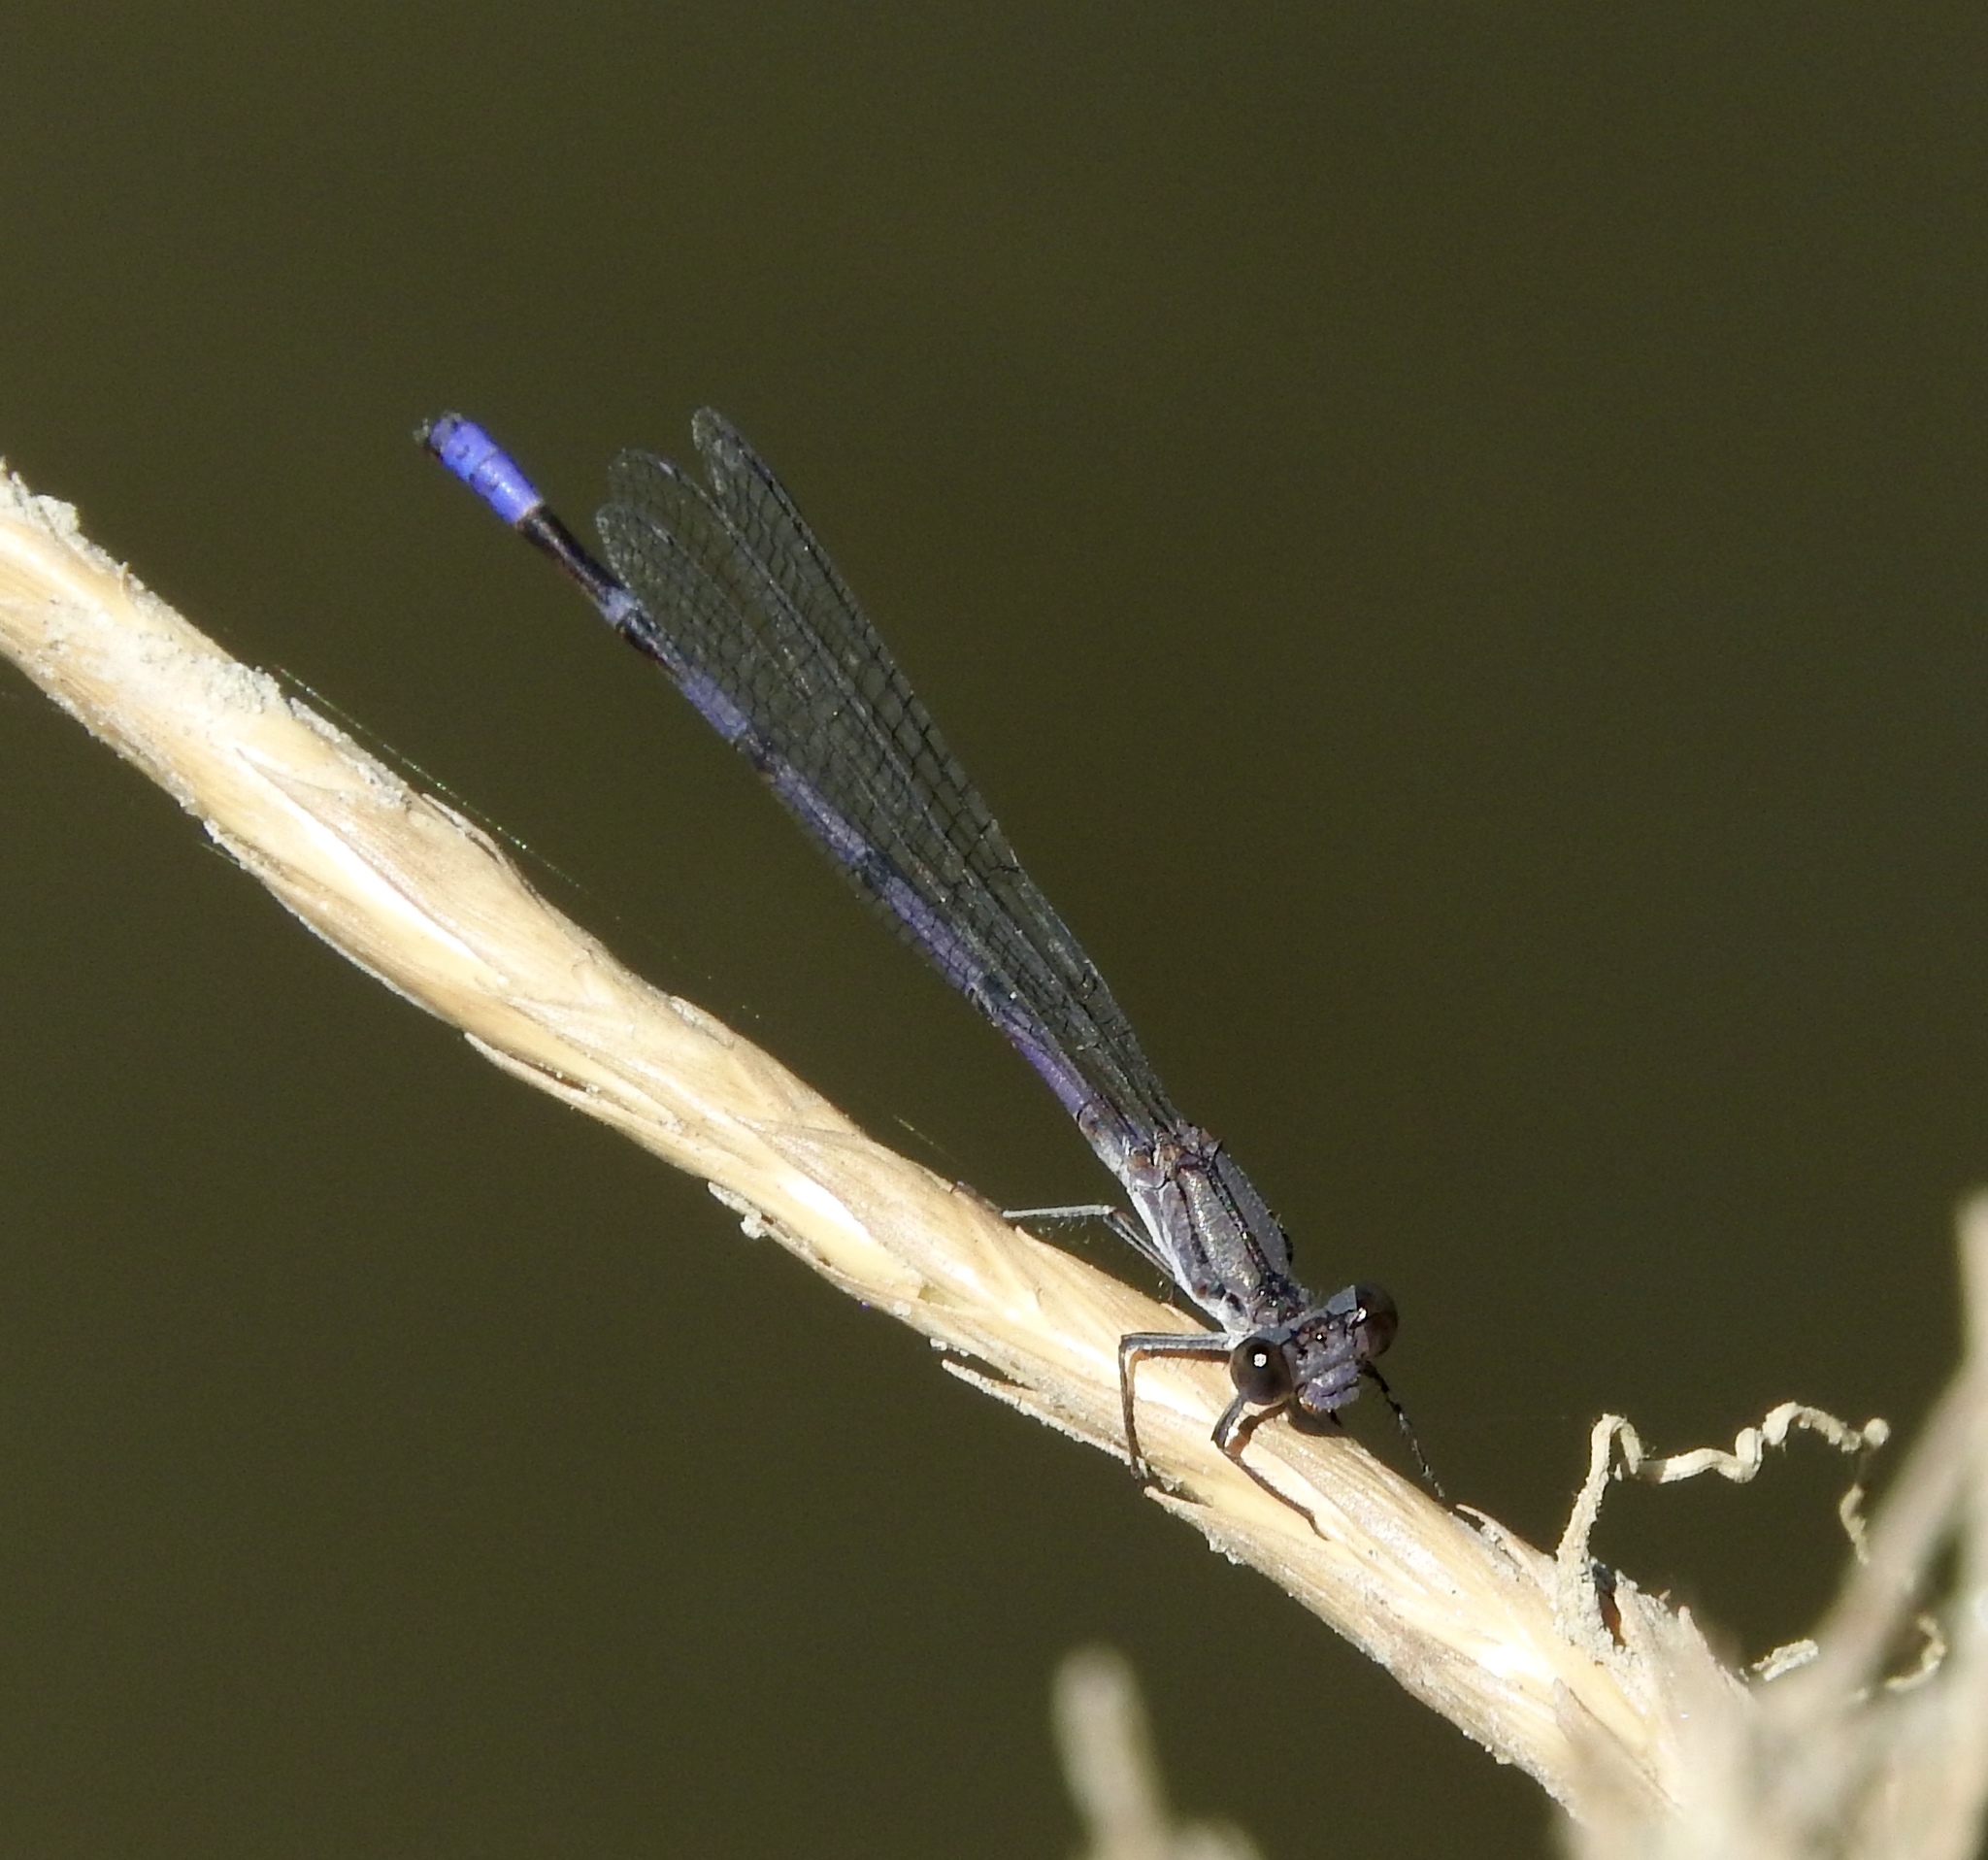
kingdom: Animalia
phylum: Arthropoda
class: Insecta
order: Odonata
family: Coenagrionidae
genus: Argia
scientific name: Argia emma
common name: Emma's dancer
